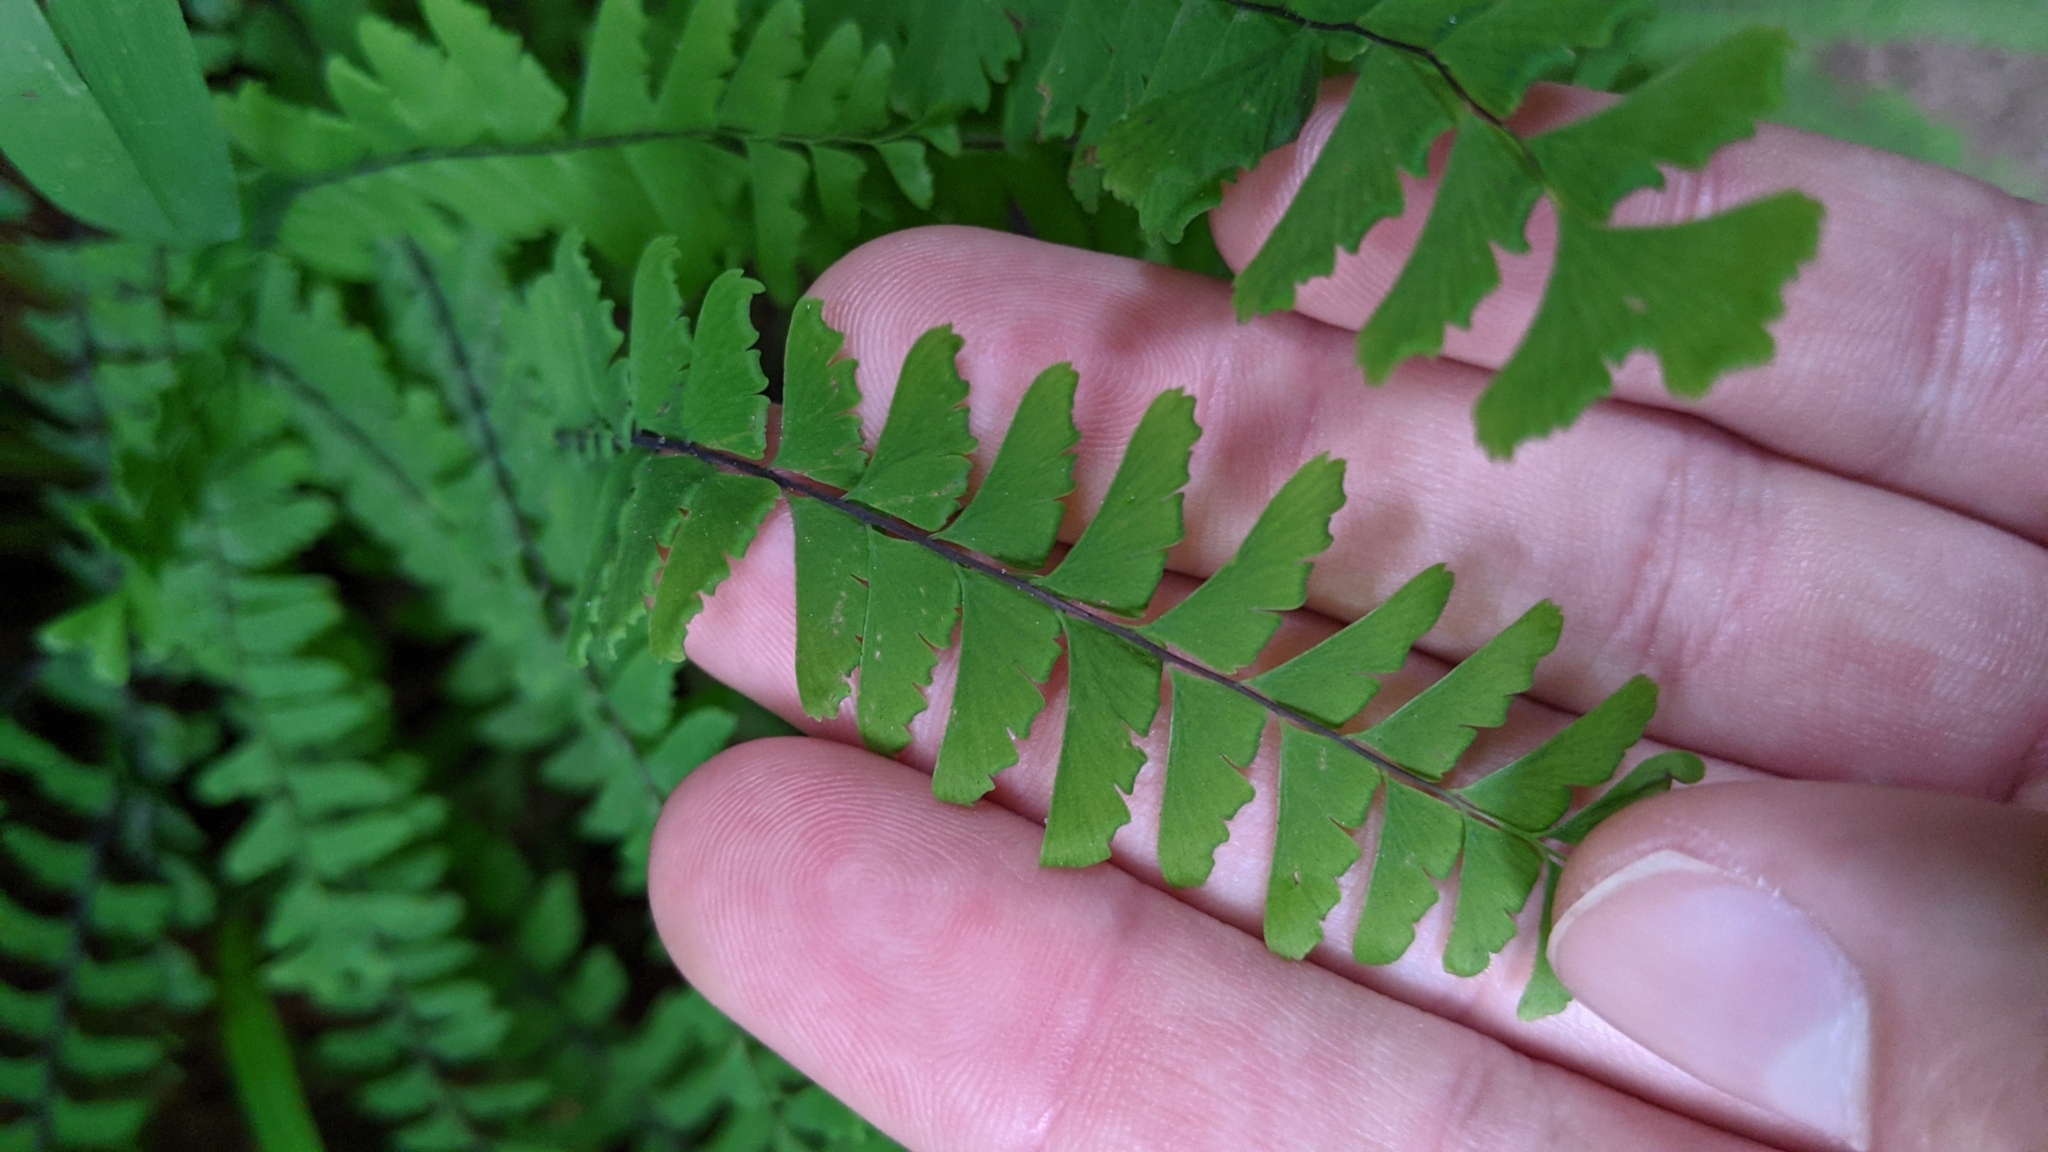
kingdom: Plantae
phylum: Tracheophyta
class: Polypodiopsida
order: Polypodiales
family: Pteridaceae
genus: Adiantum
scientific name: Adiantum aleuticum
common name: Aleutian maidenhair fern
